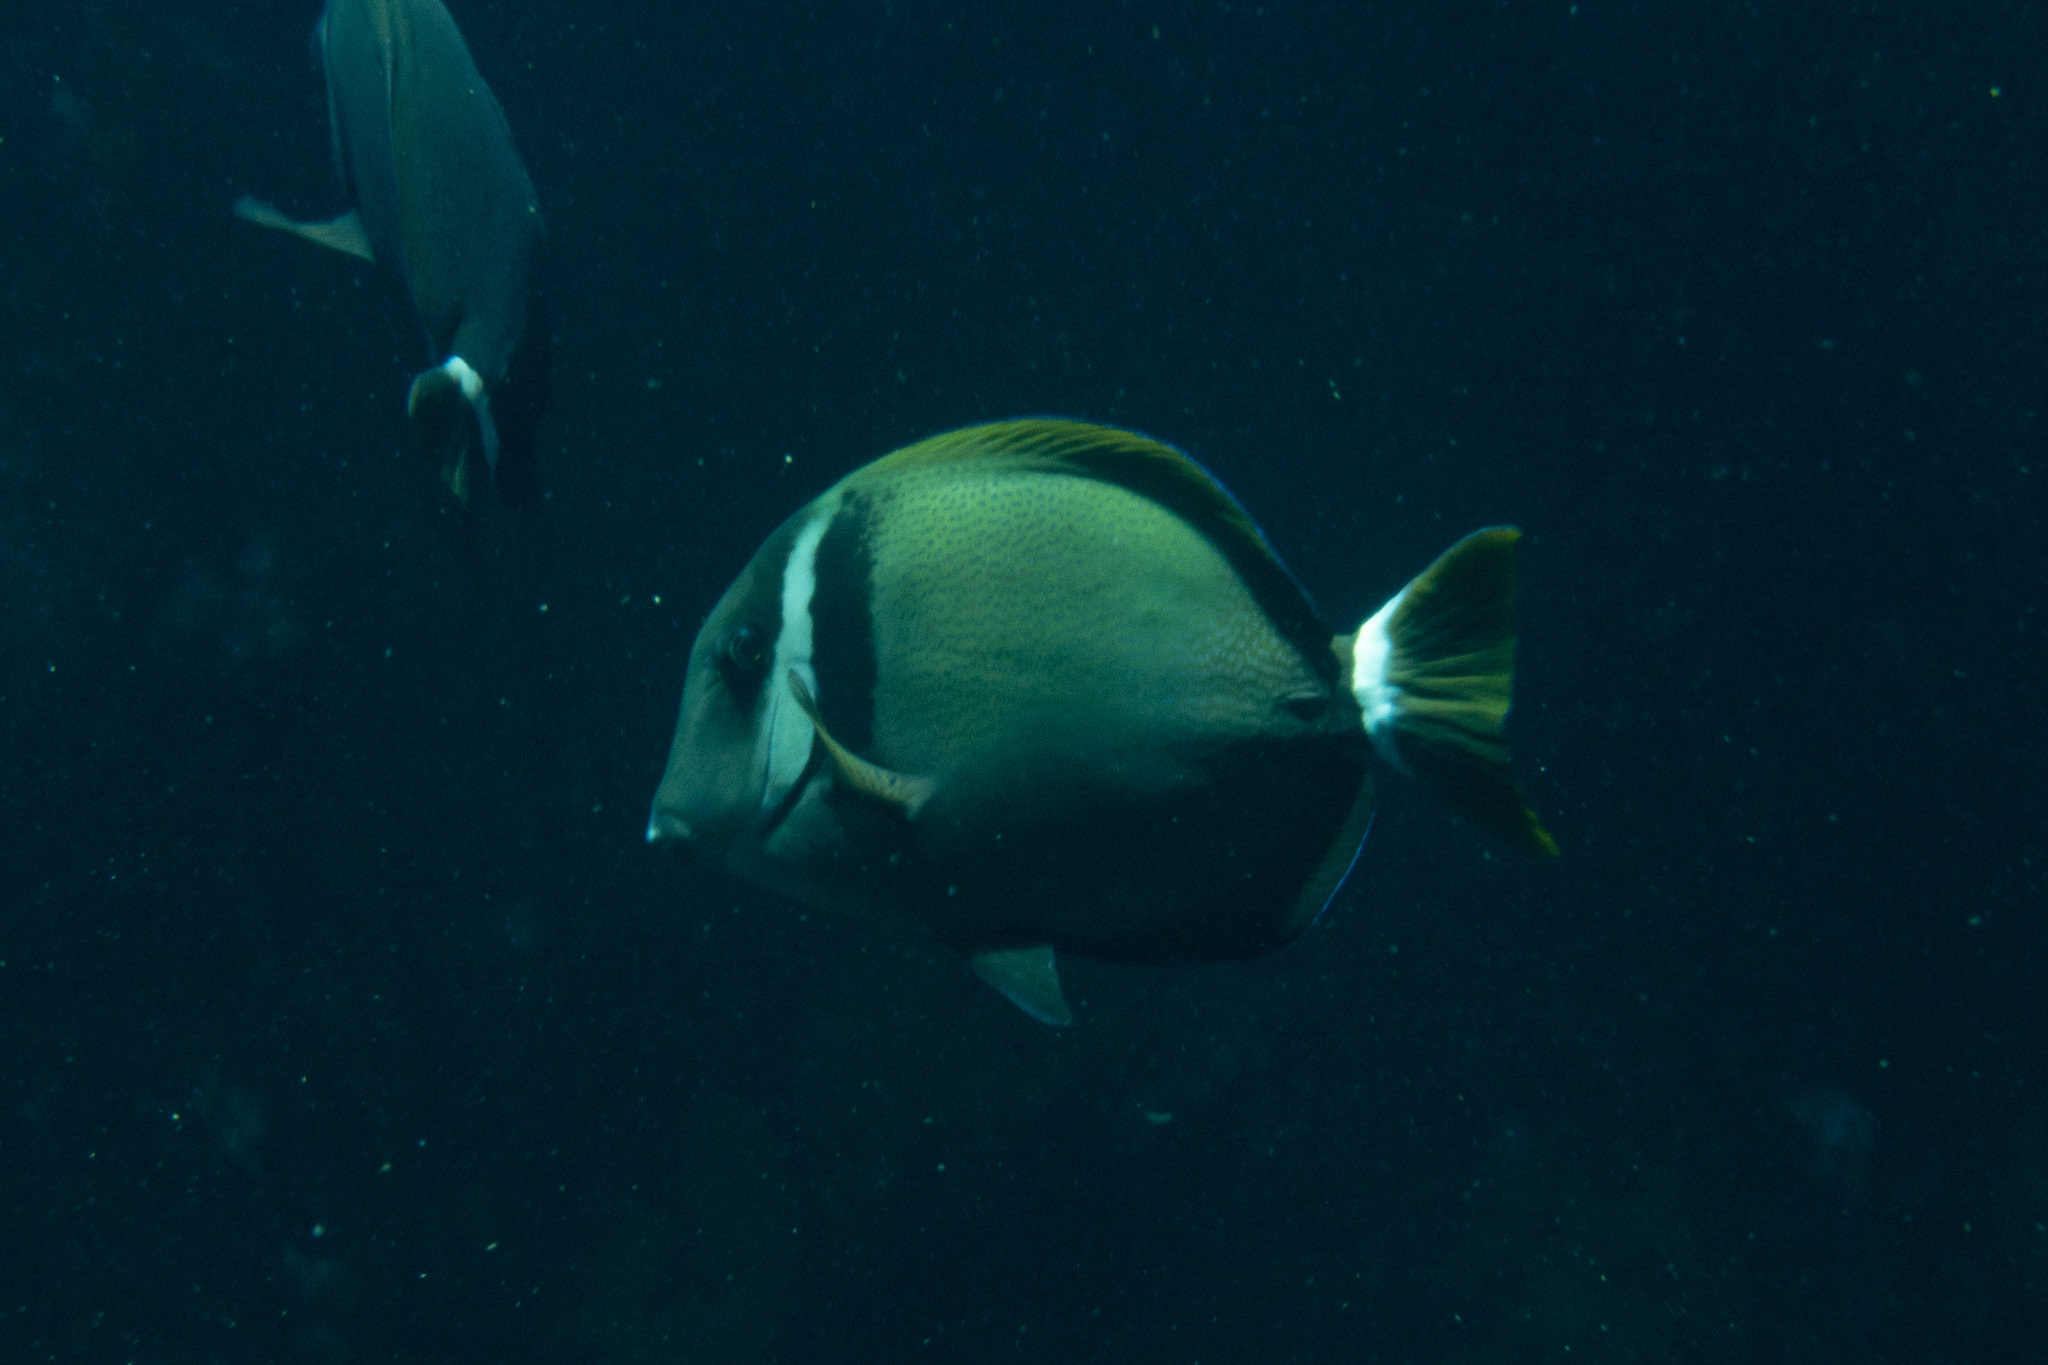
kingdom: Animalia
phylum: Chordata
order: Perciformes
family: Acanthuridae
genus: Acanthurus
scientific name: Acanthurus leucopareius
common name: Head-band surgeonfish
